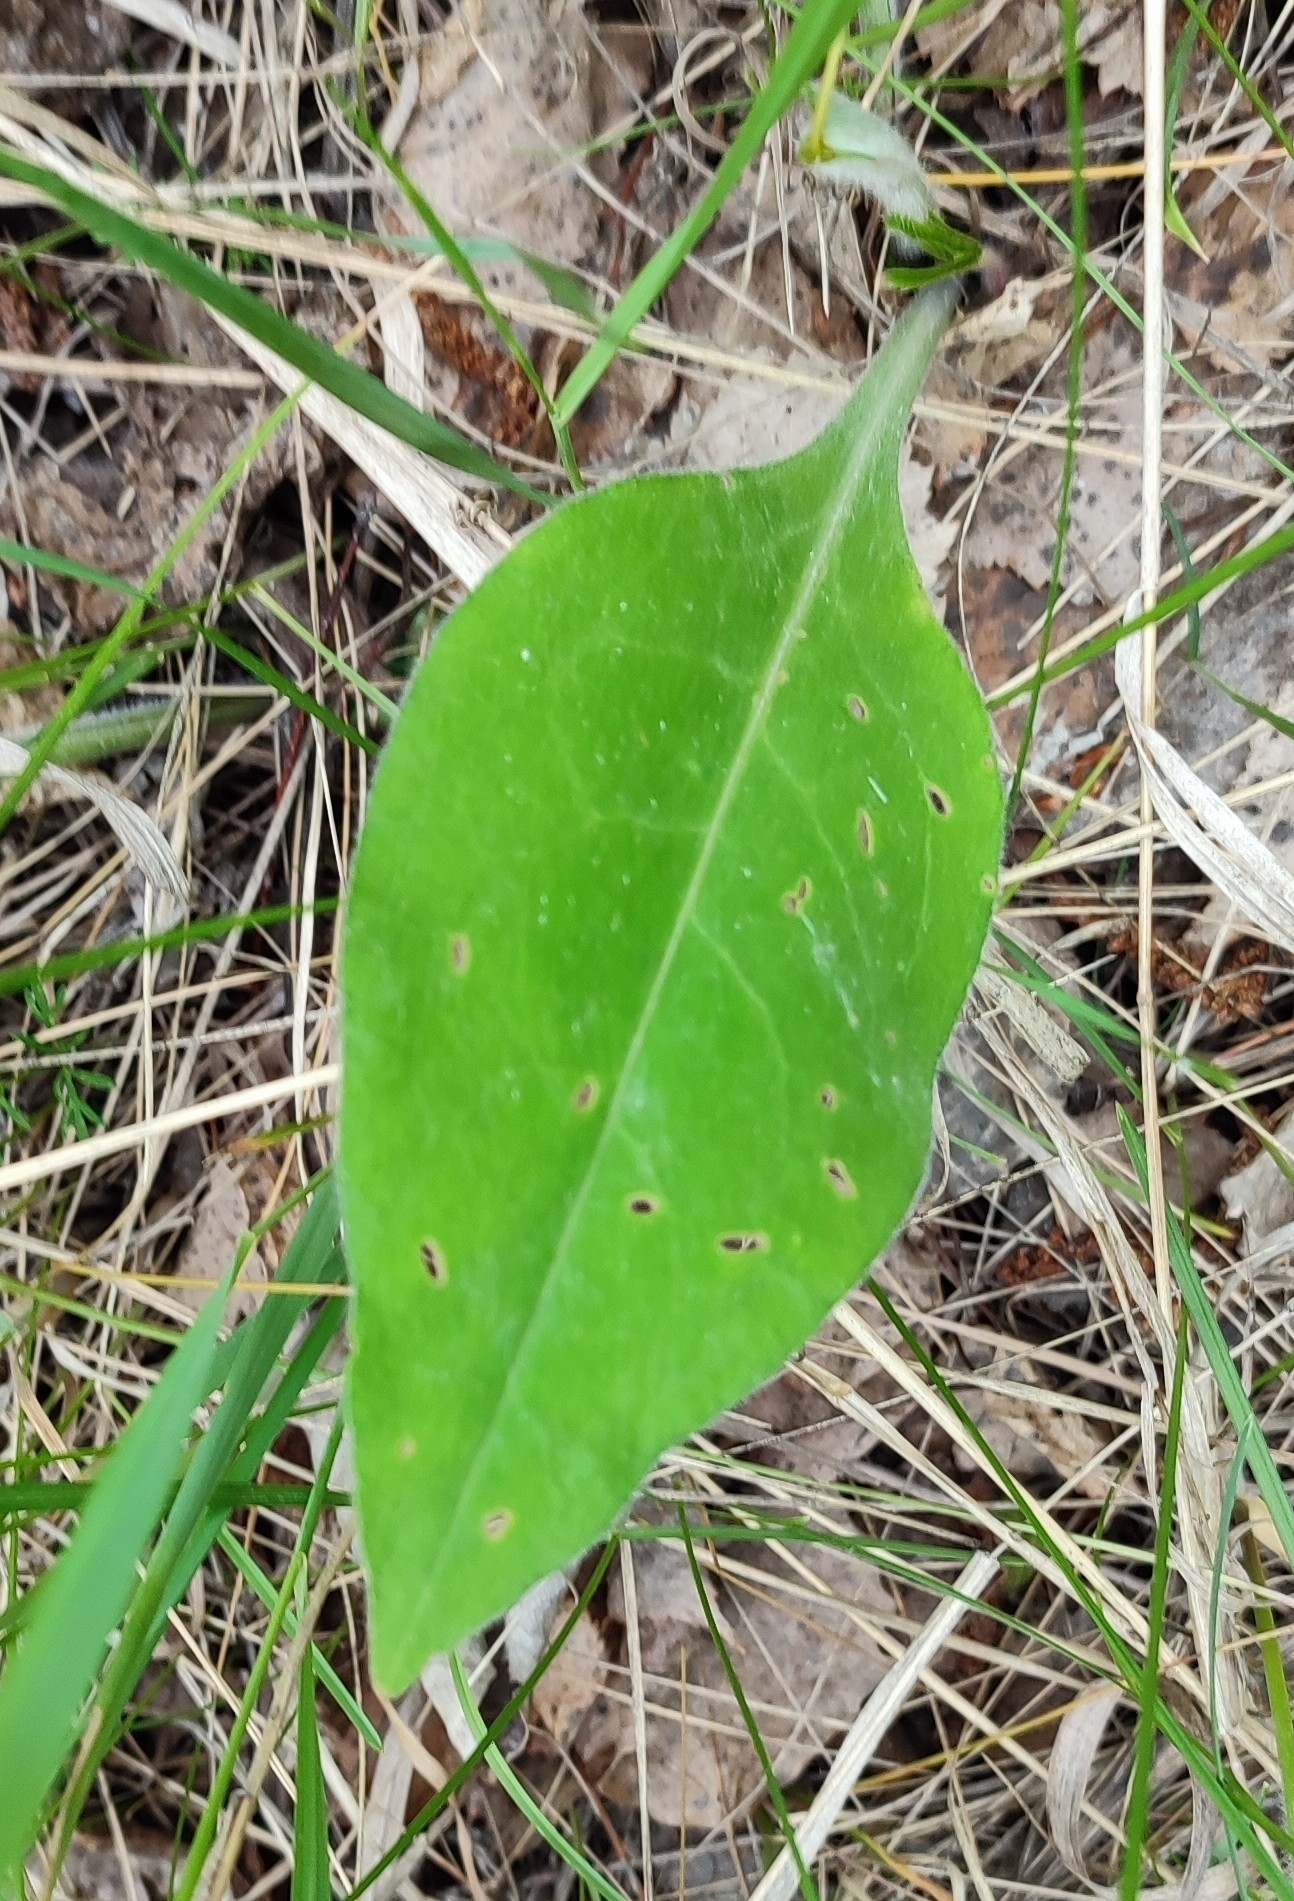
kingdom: Plantae
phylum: Tracheophyta
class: Magnoliopsida
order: Boraginales
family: Boraginaceae
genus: Pulmonaria
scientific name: Pulmonaria mollis
